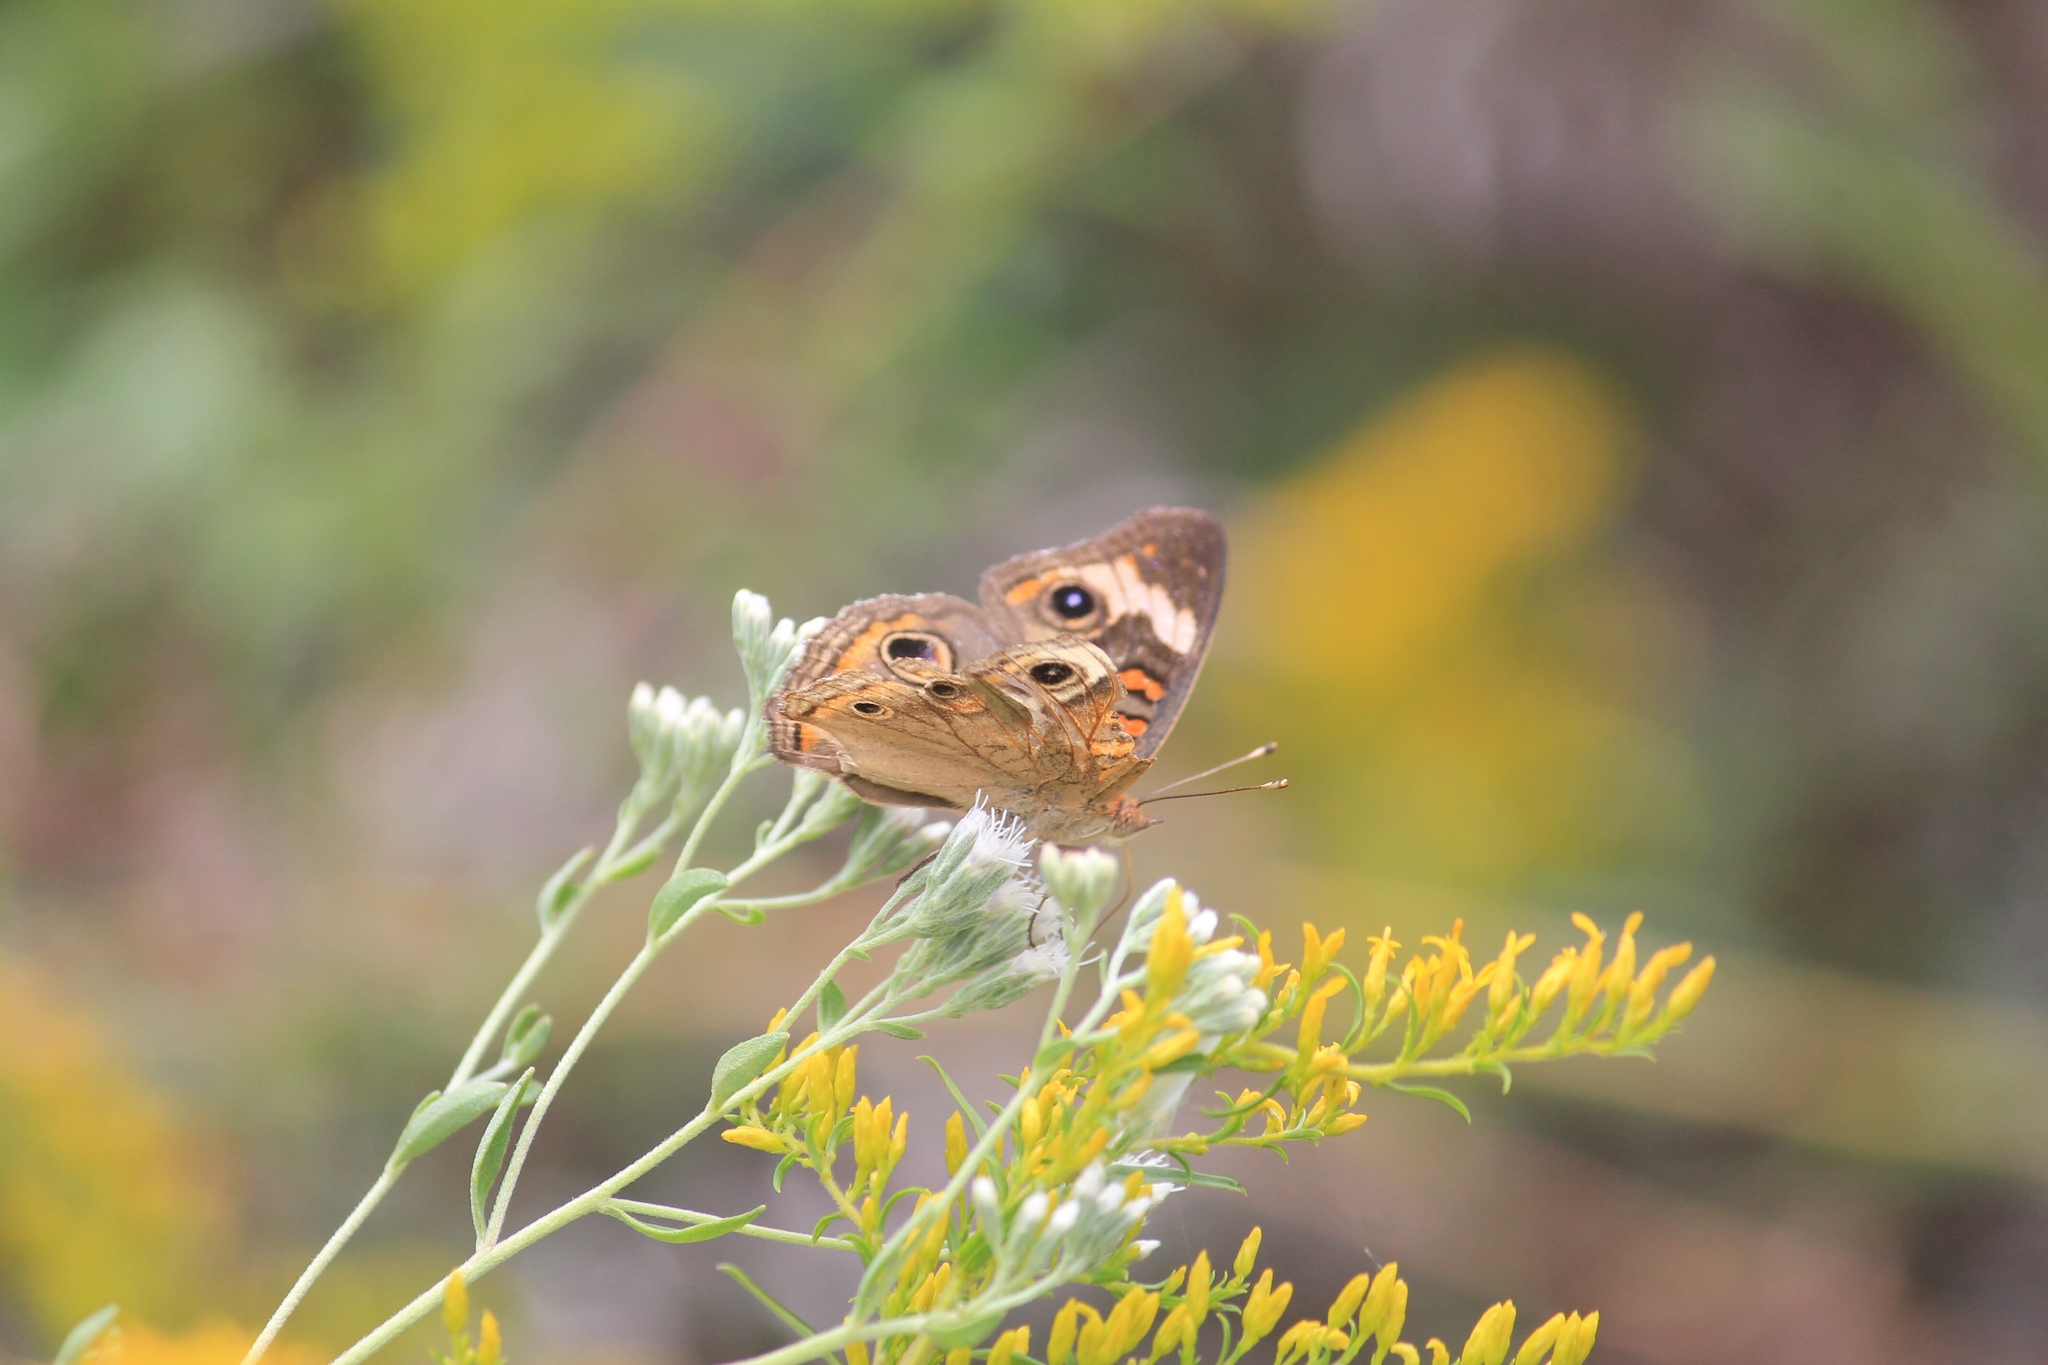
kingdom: Animalia
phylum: Arthropoda
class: Insecta
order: Lepidoptera
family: Nymphalidae
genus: Junonia
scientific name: Junonia coenia
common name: Common buckeye
